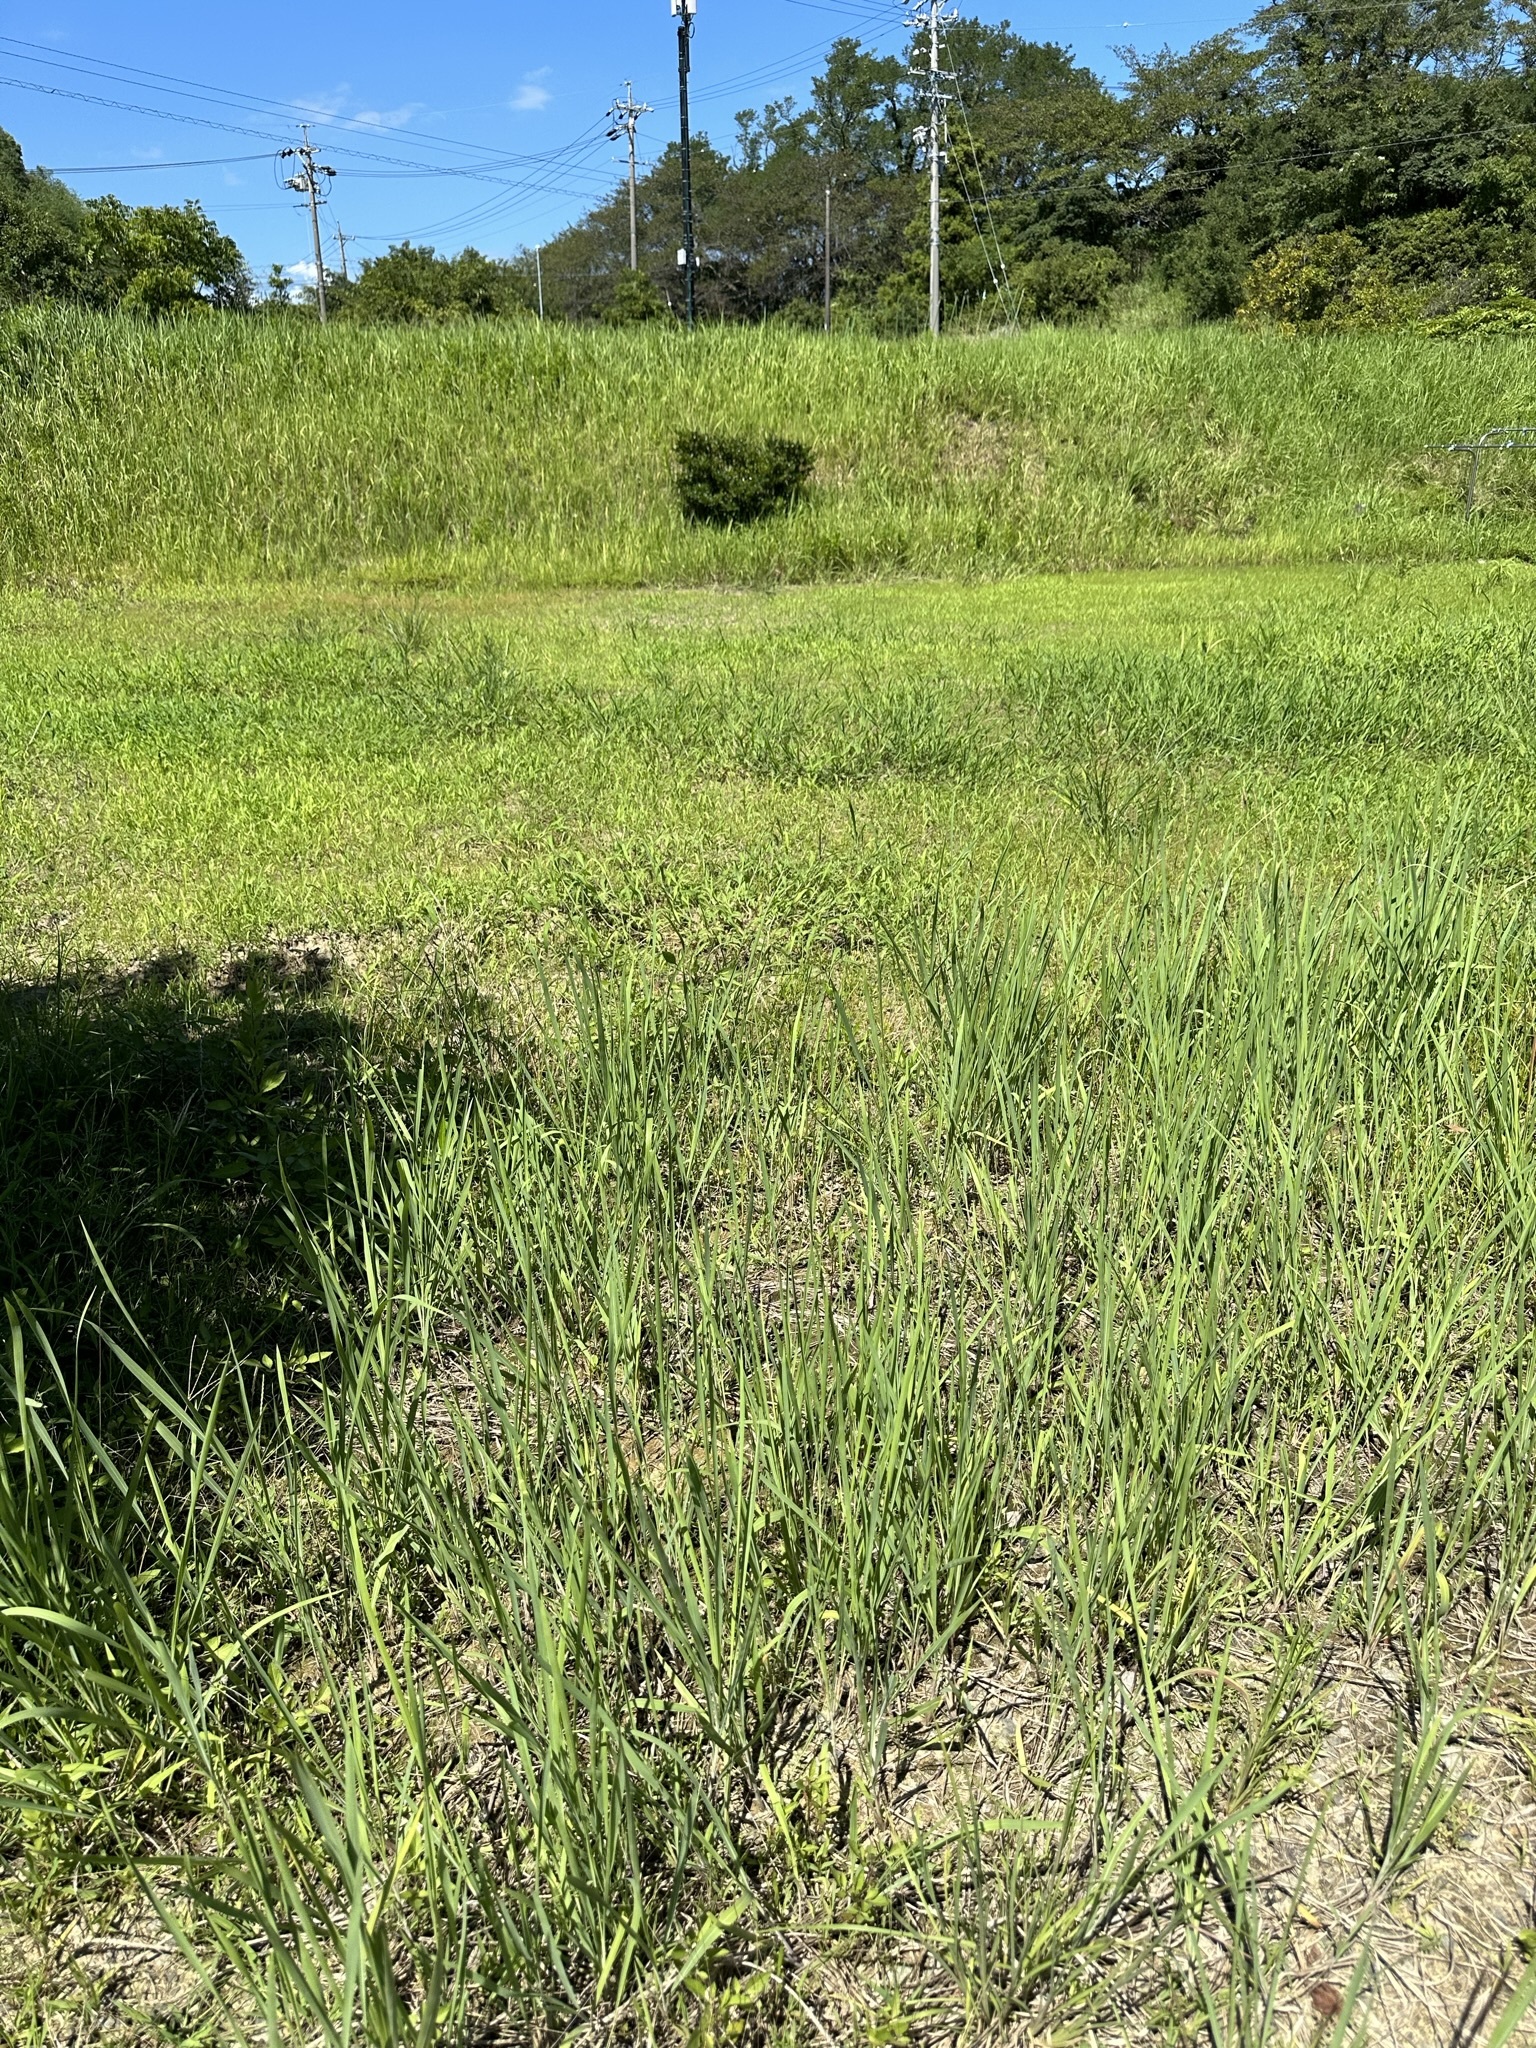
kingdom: Animalia
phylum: Arthropoda
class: Insecta
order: Orthoptera
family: Tettigoniidae
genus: Gampsocleis
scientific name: Gampsocleis buergeri
